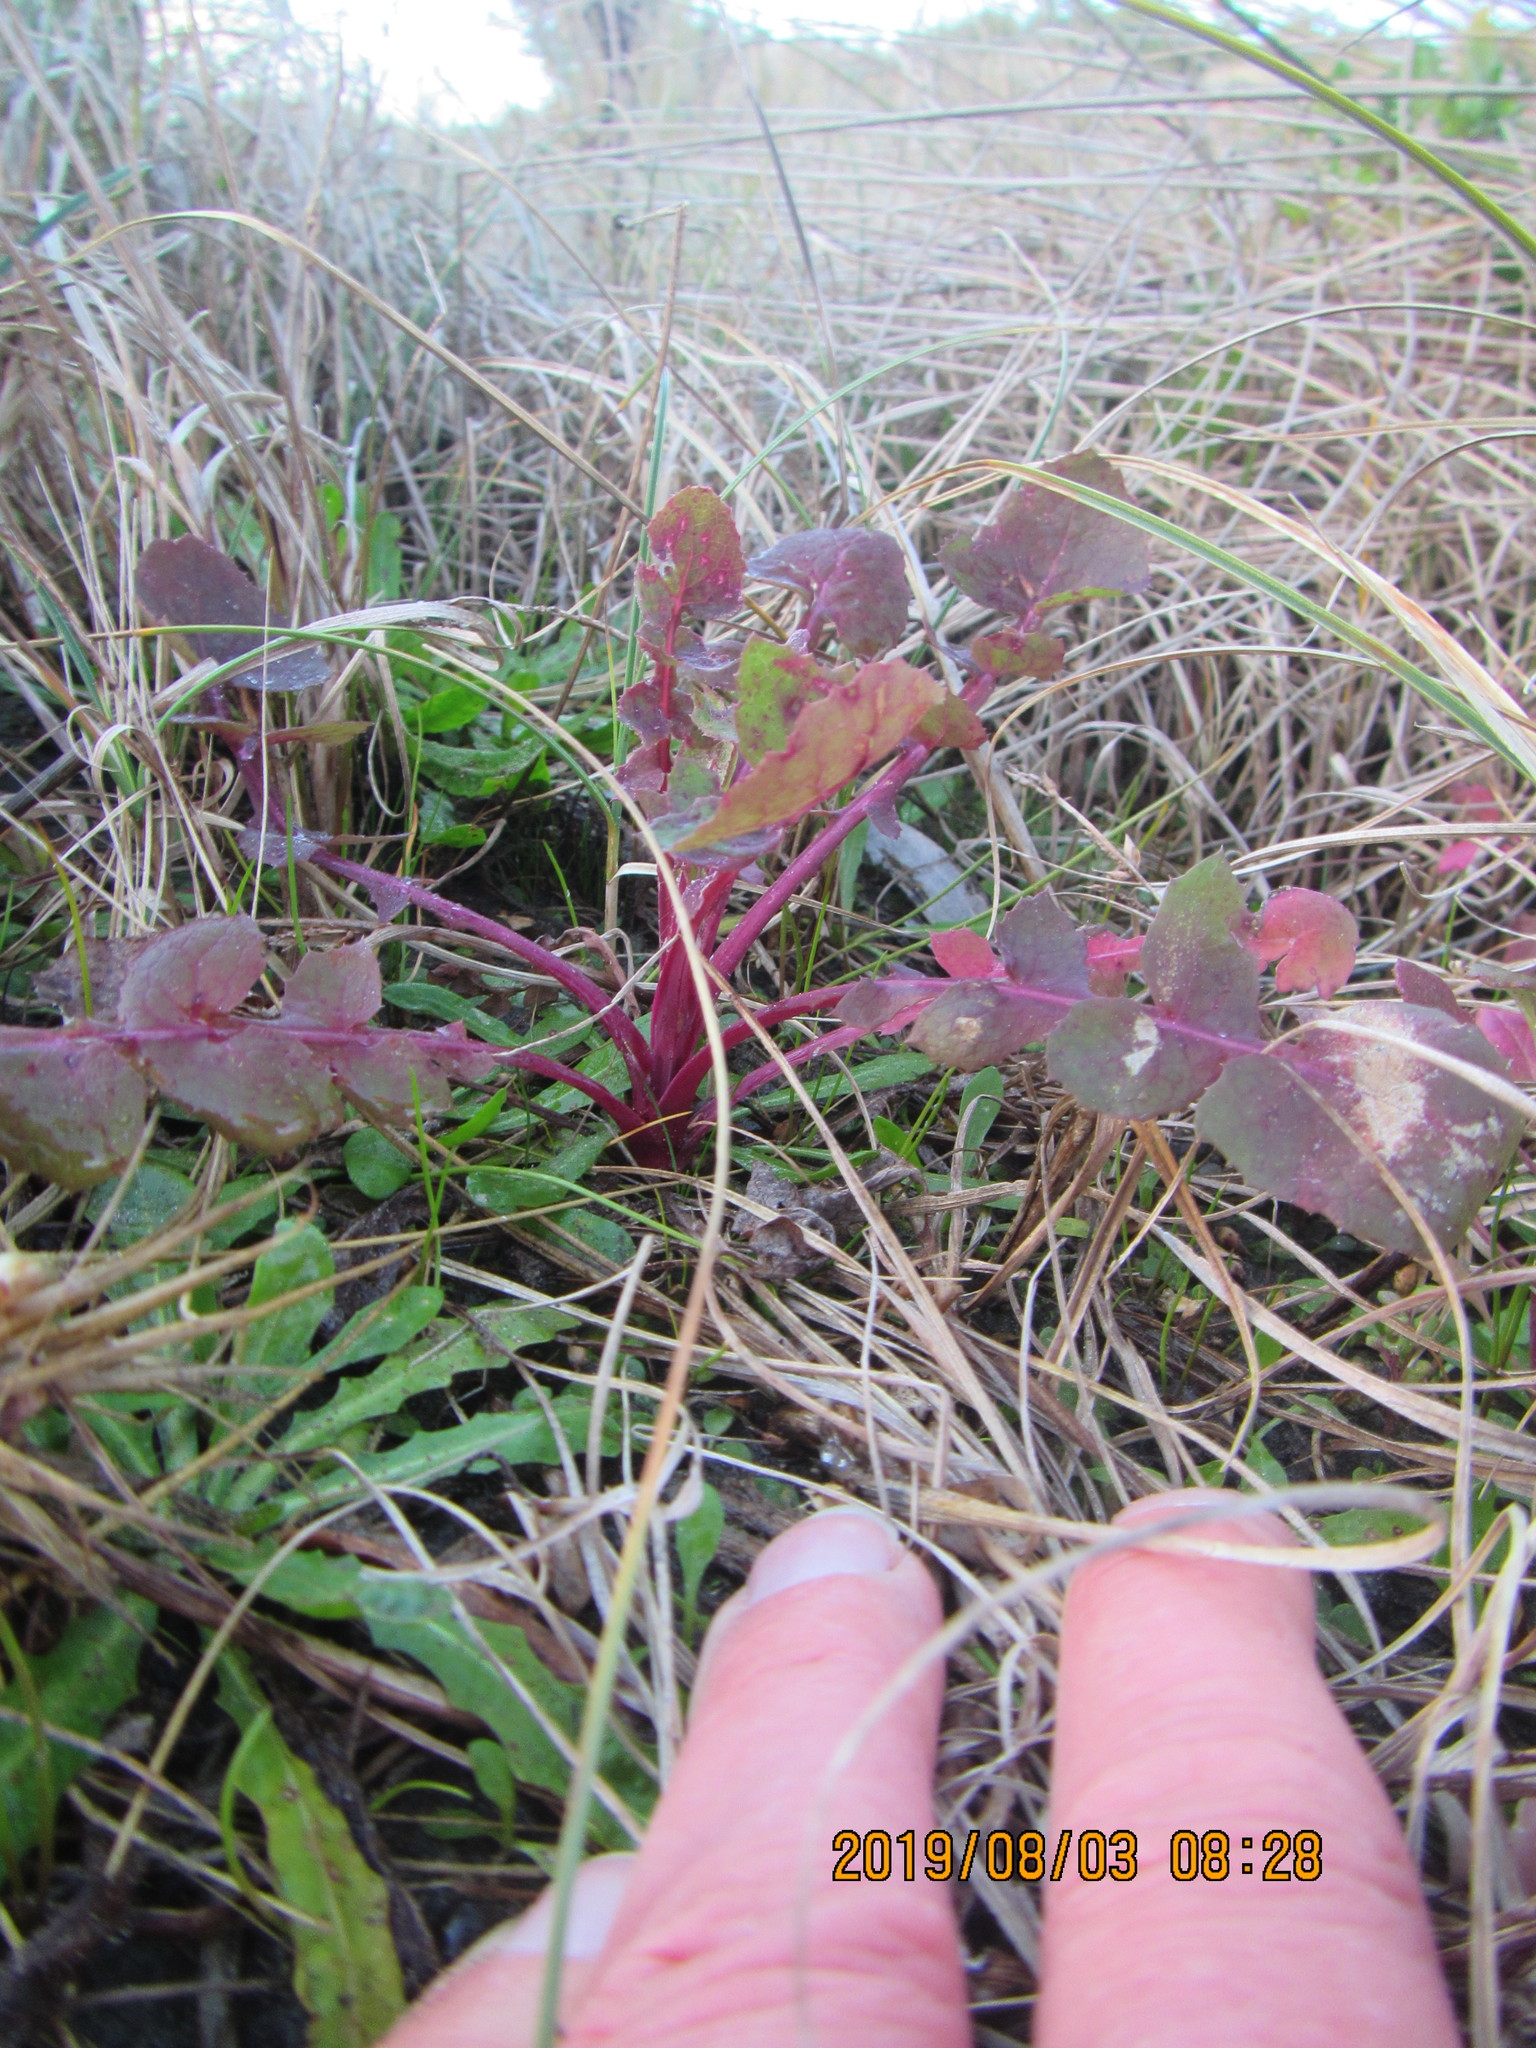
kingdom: Plantae
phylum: Tracheophyta
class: Magnoliopsida
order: Asterales
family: Asteraceae
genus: Sonchus
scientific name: Sonchus oleraceus
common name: Common sowthistle
